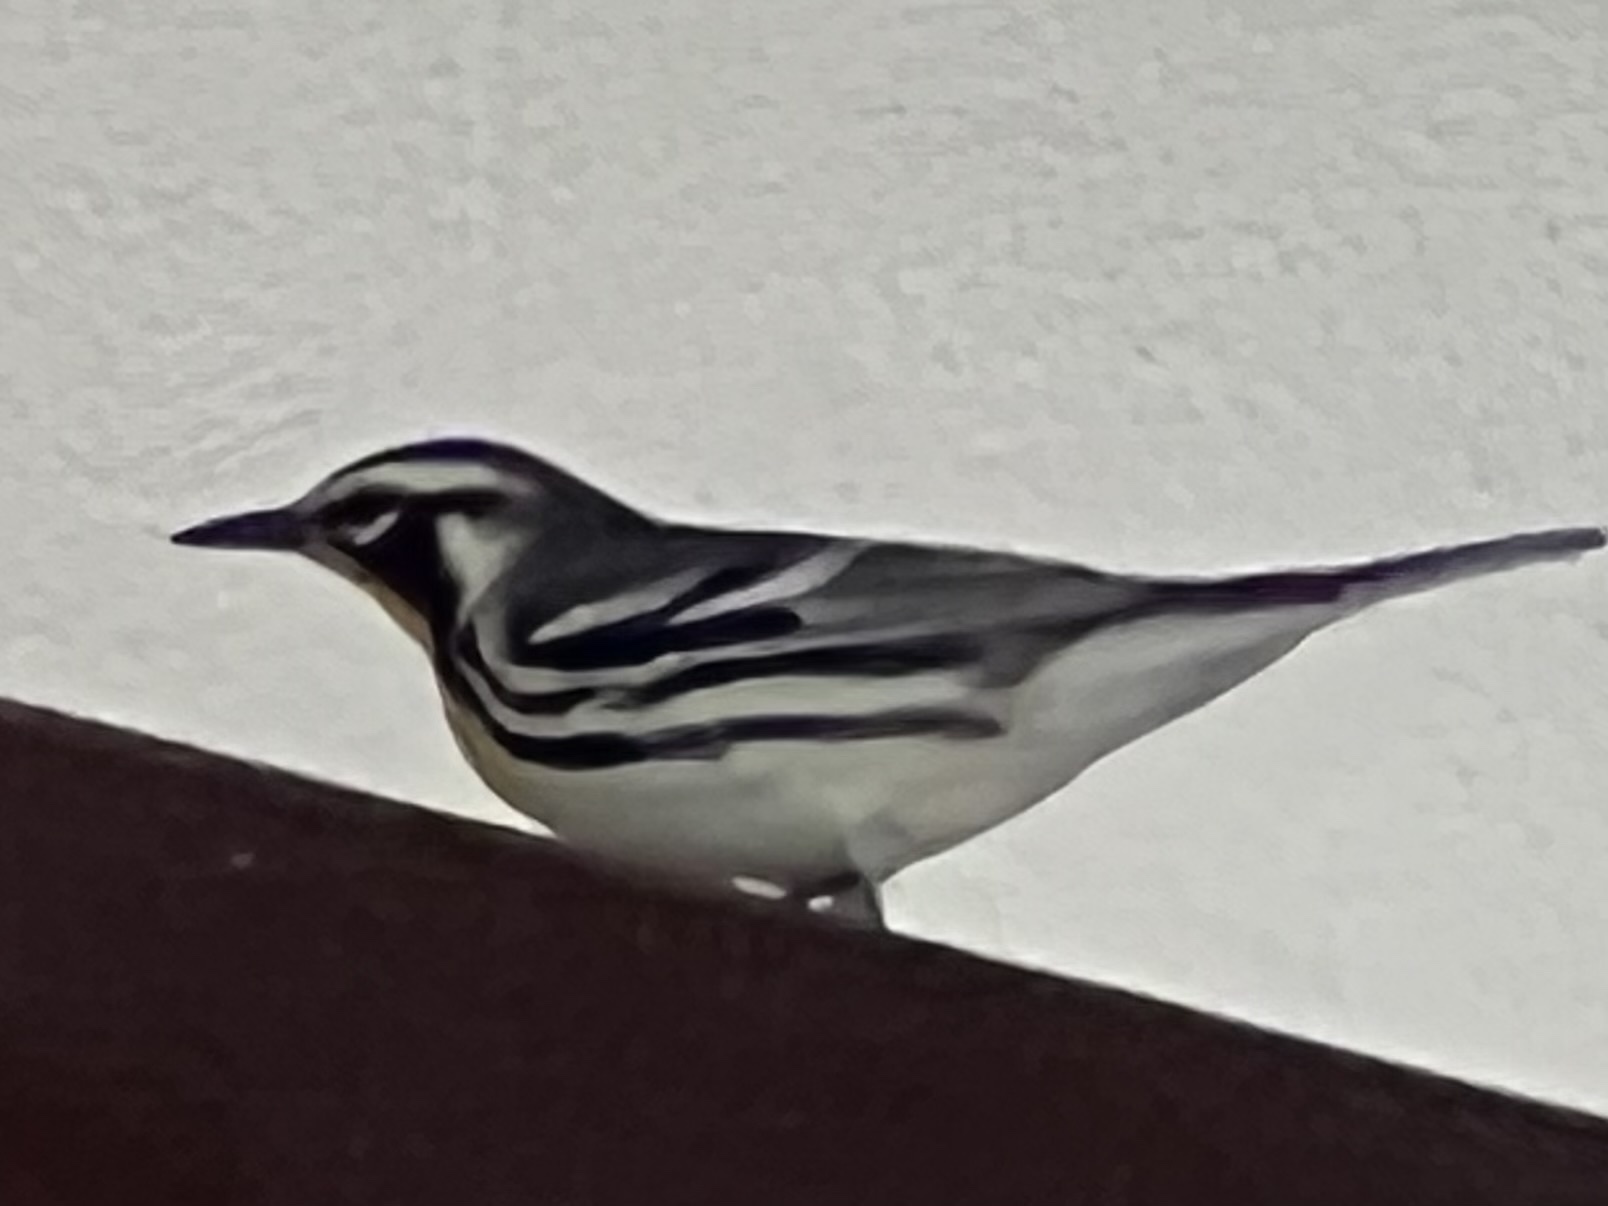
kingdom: Animalia
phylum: Chordata
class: Aves
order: Passeriformes
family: Parulidae
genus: Setophaga
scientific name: Setophaga dominica
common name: Yellow-throated warbler
